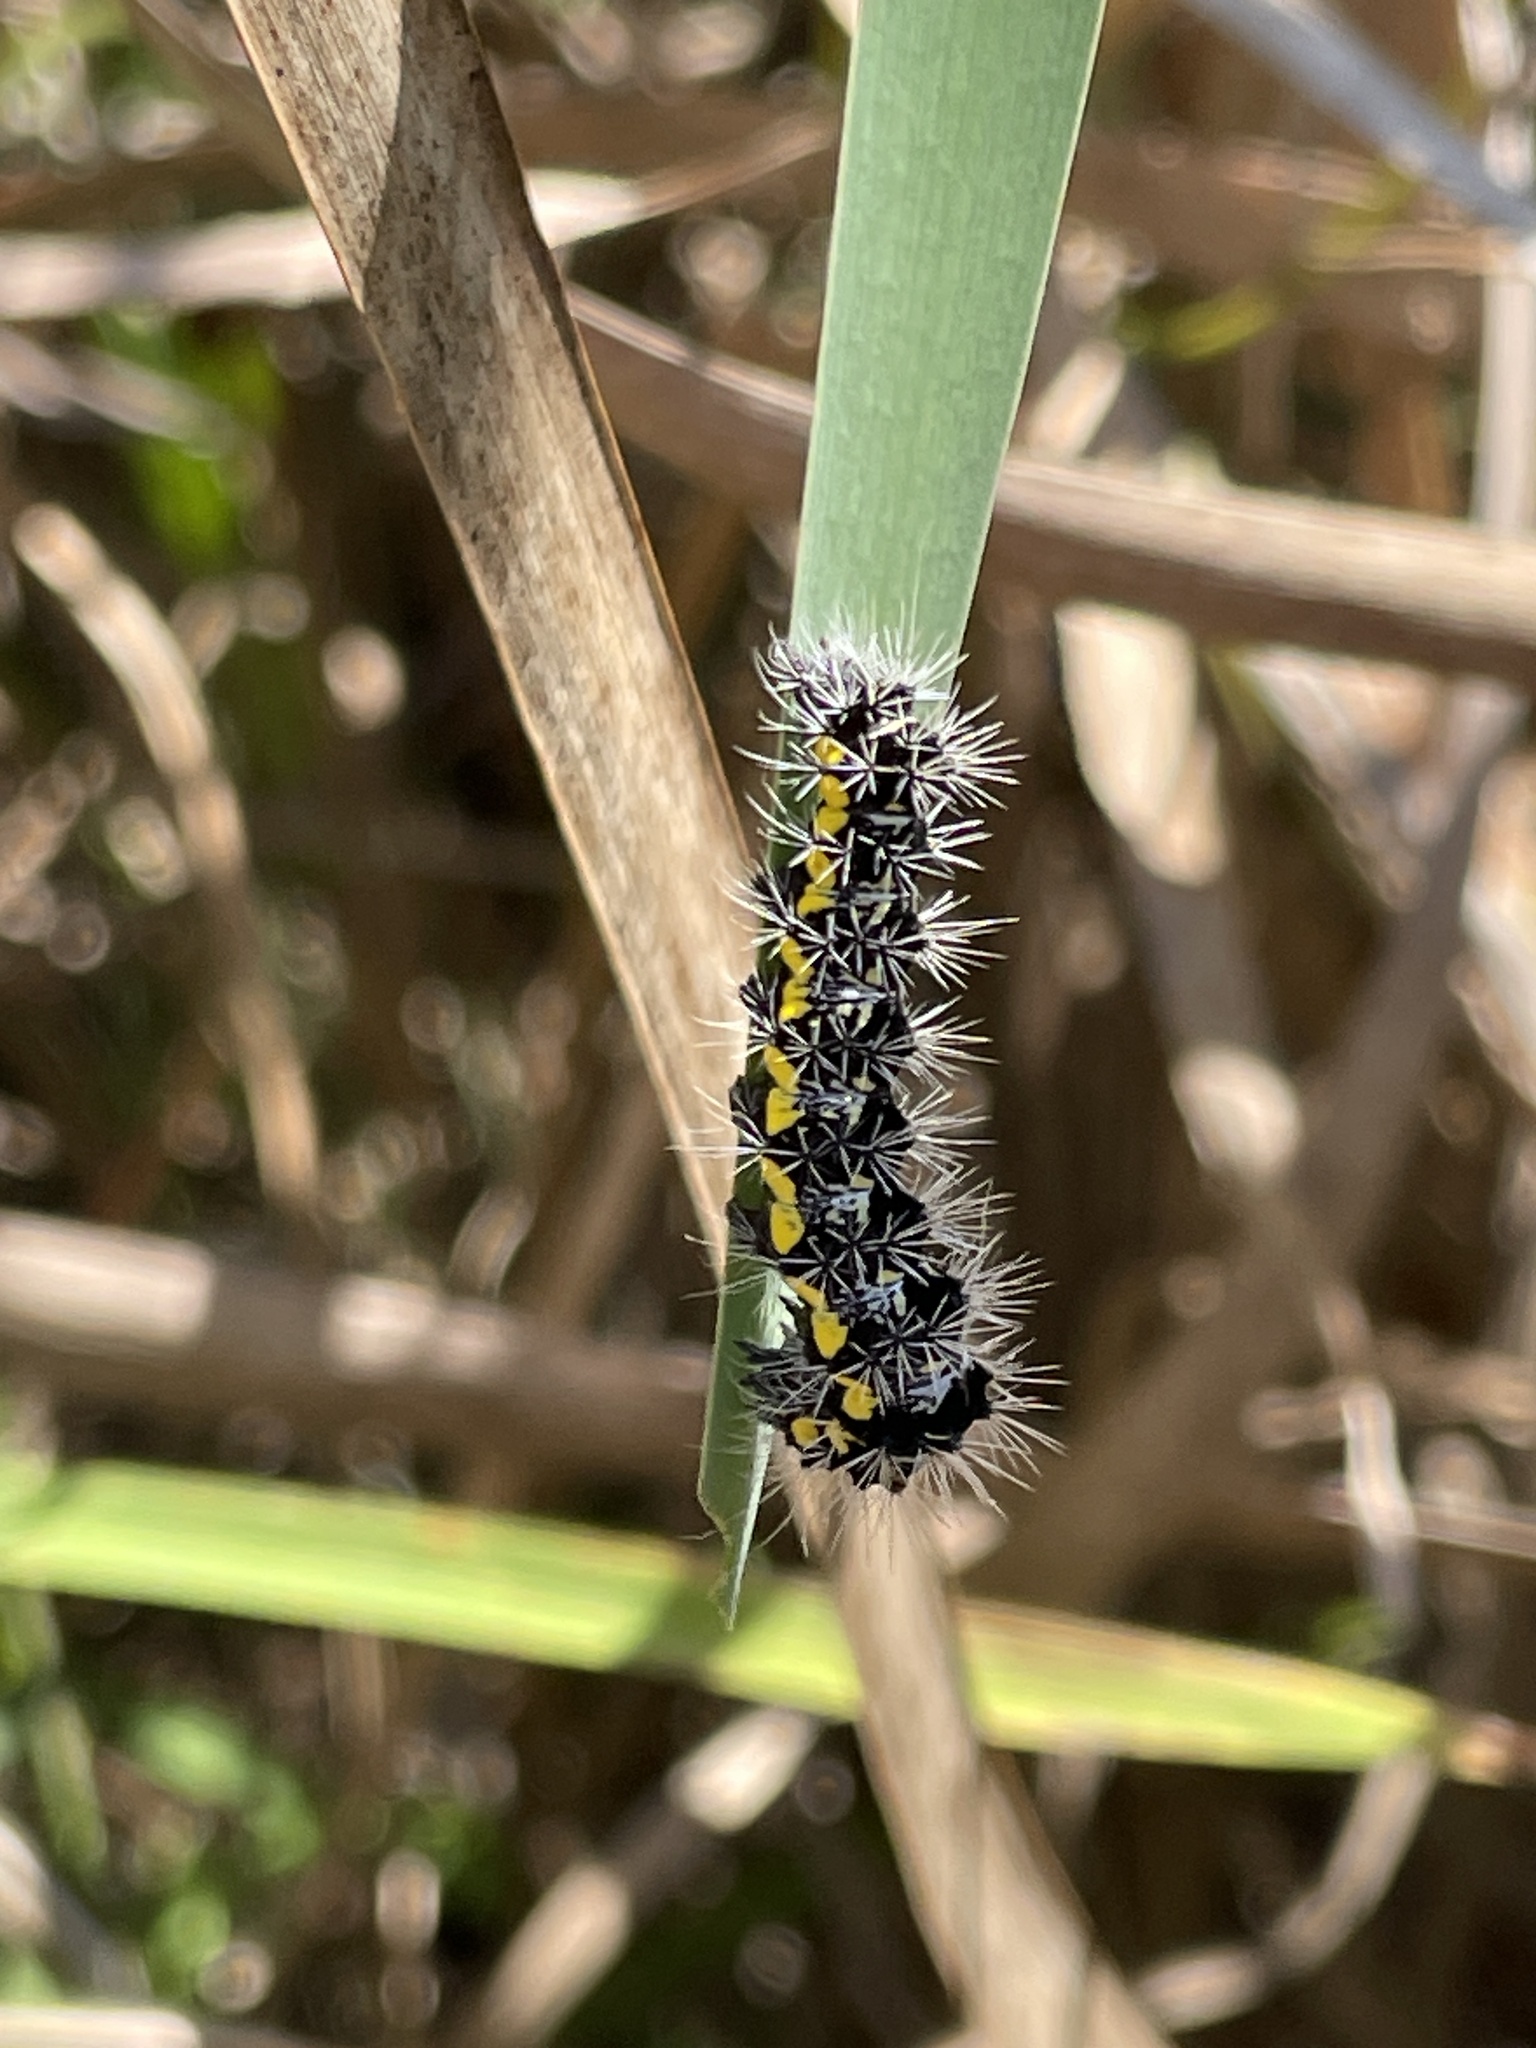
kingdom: Animalia
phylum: Arthropoda
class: Insecta
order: Lepidoptera
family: Noctuidae
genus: Acronicta
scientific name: Acronicta oblinita
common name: Smeared dagger
